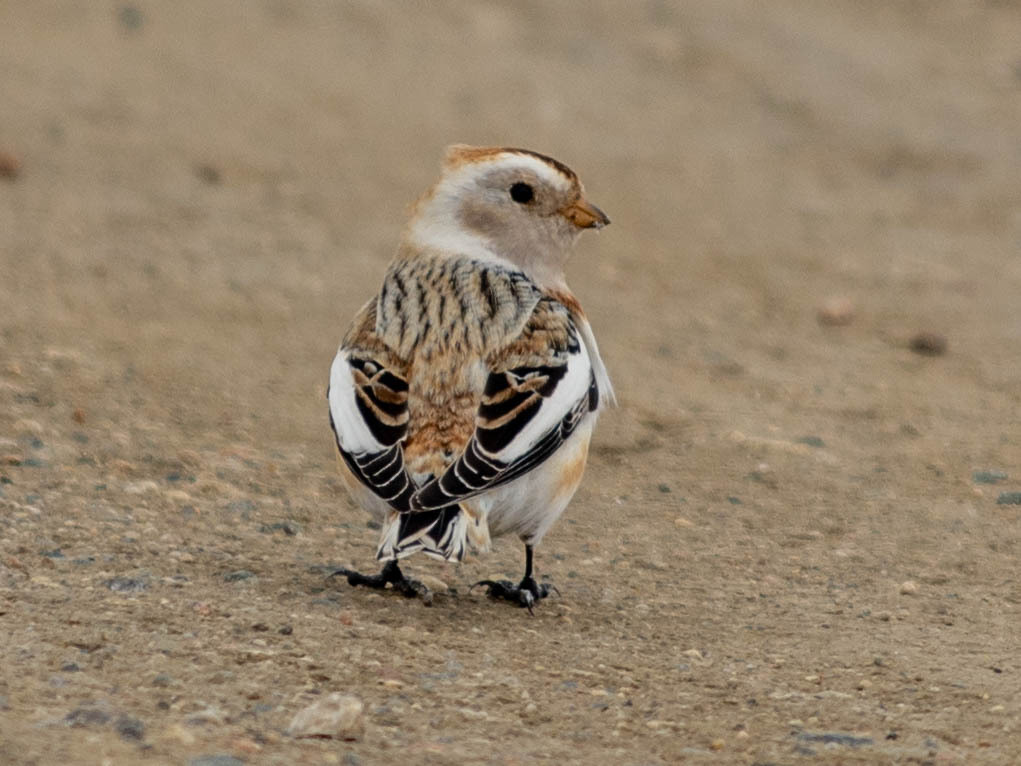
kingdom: Animalia
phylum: Chordata
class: Aves
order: Passeriformes
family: Calcariidae
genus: Plectrophenax
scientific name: Plectrophenax nivalis
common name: Snow bunting
